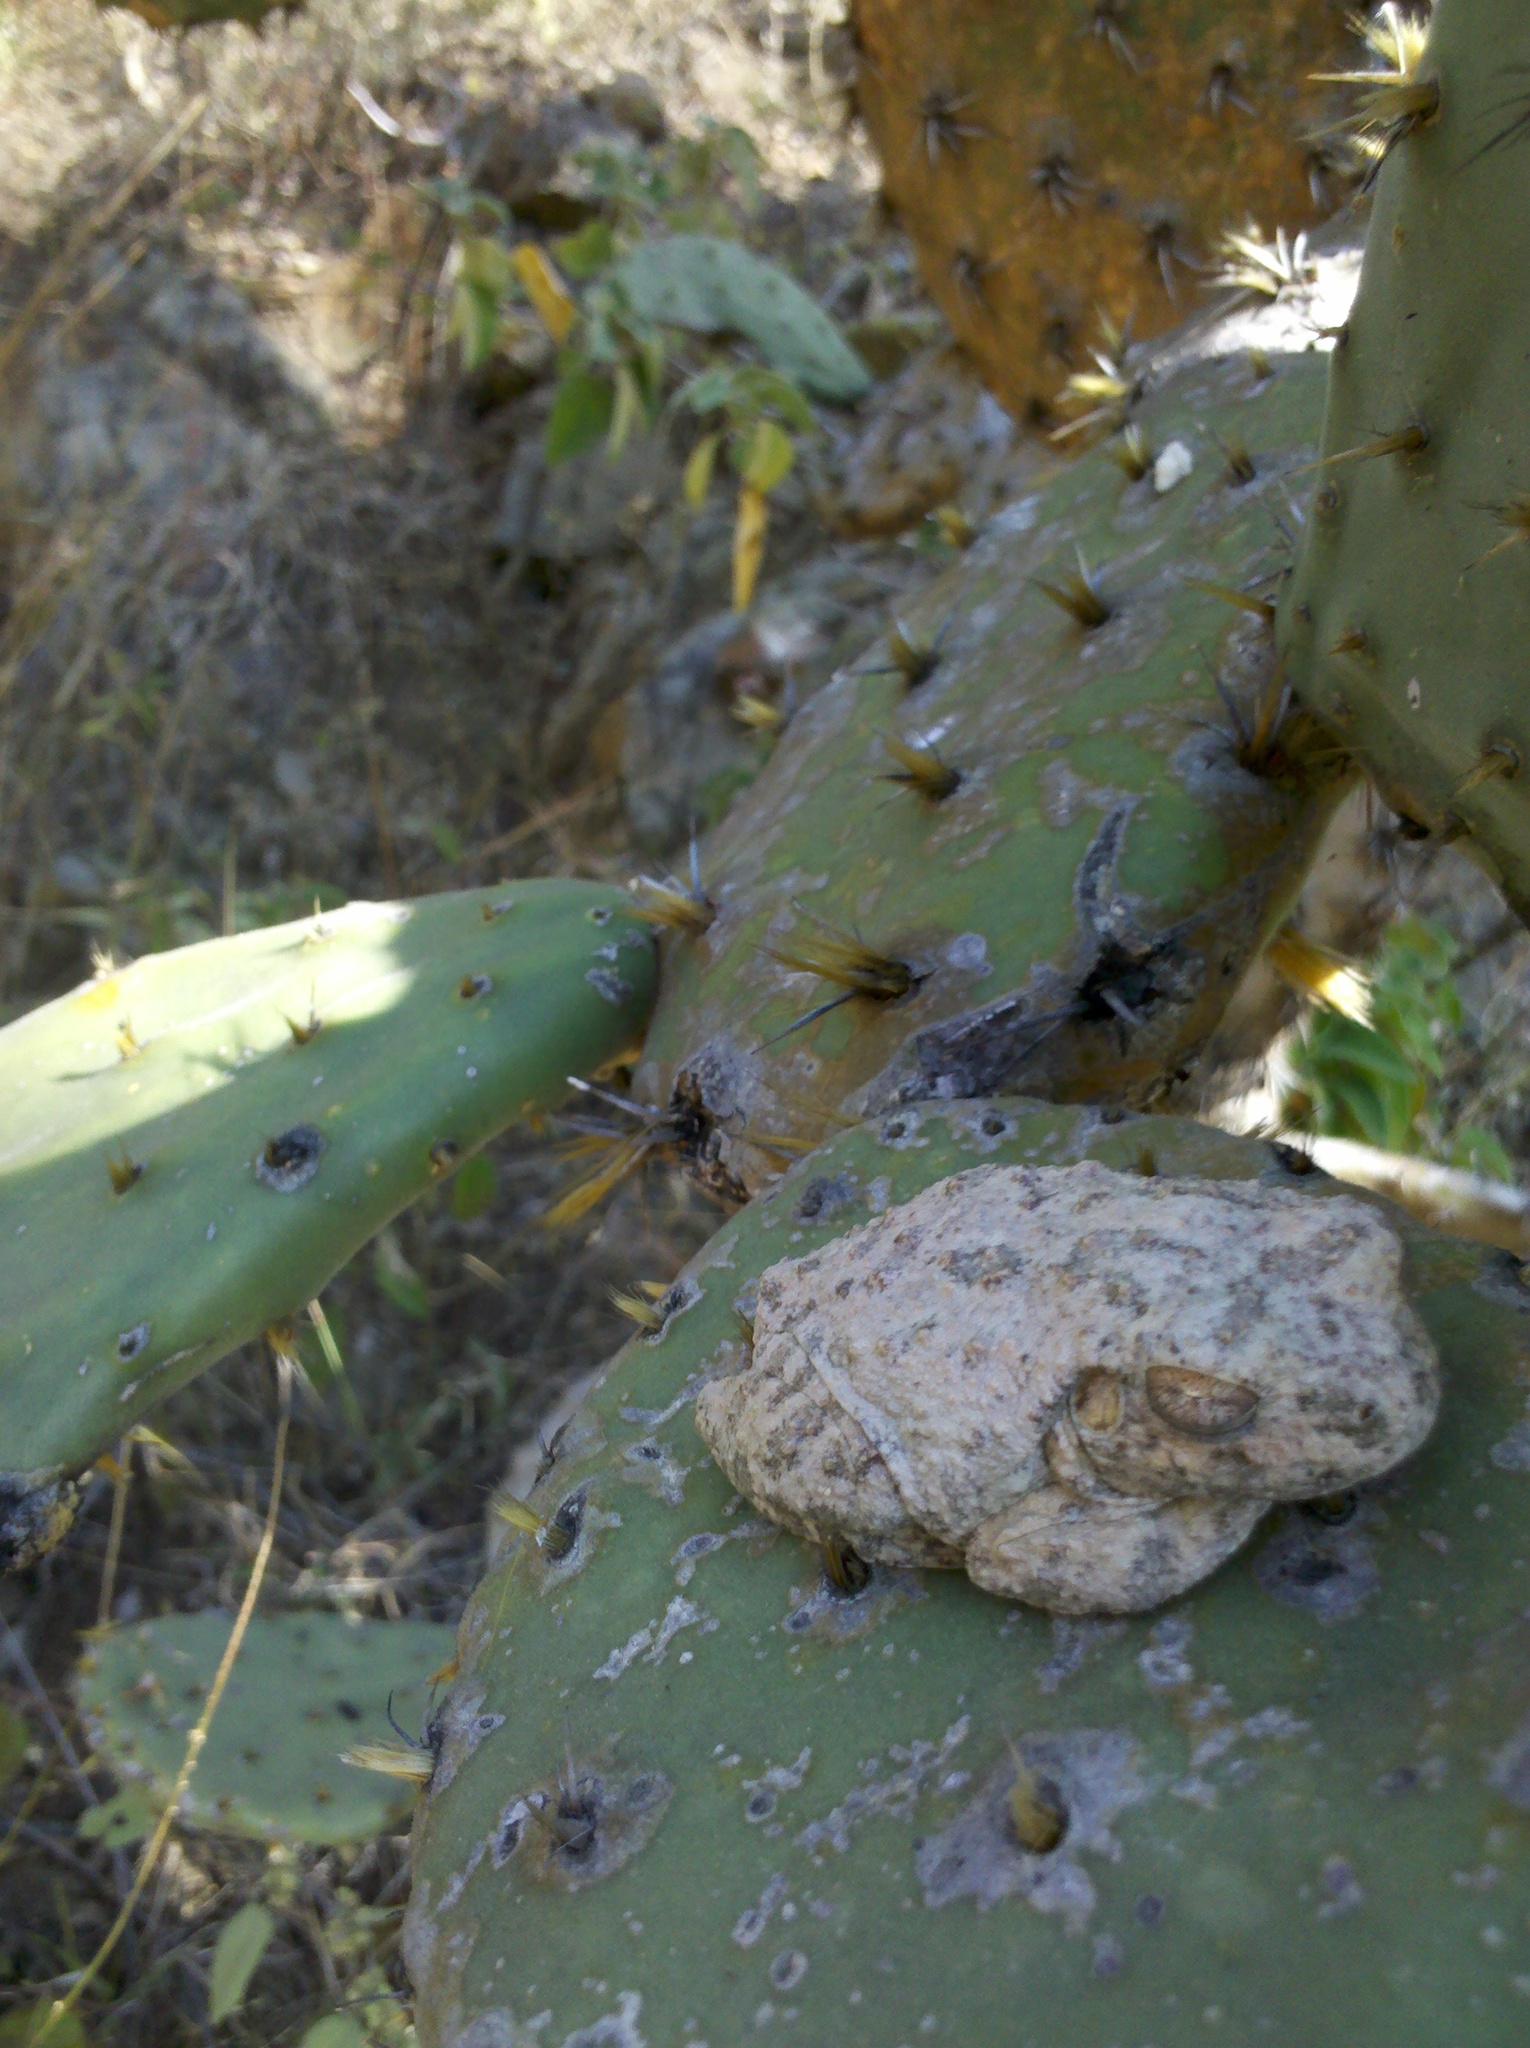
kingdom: Animalia
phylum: Chordata
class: Amphibia
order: Anura
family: Hylidae
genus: Dryophytes
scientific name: Dryophytes arenicolor
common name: Canyon treefrog
